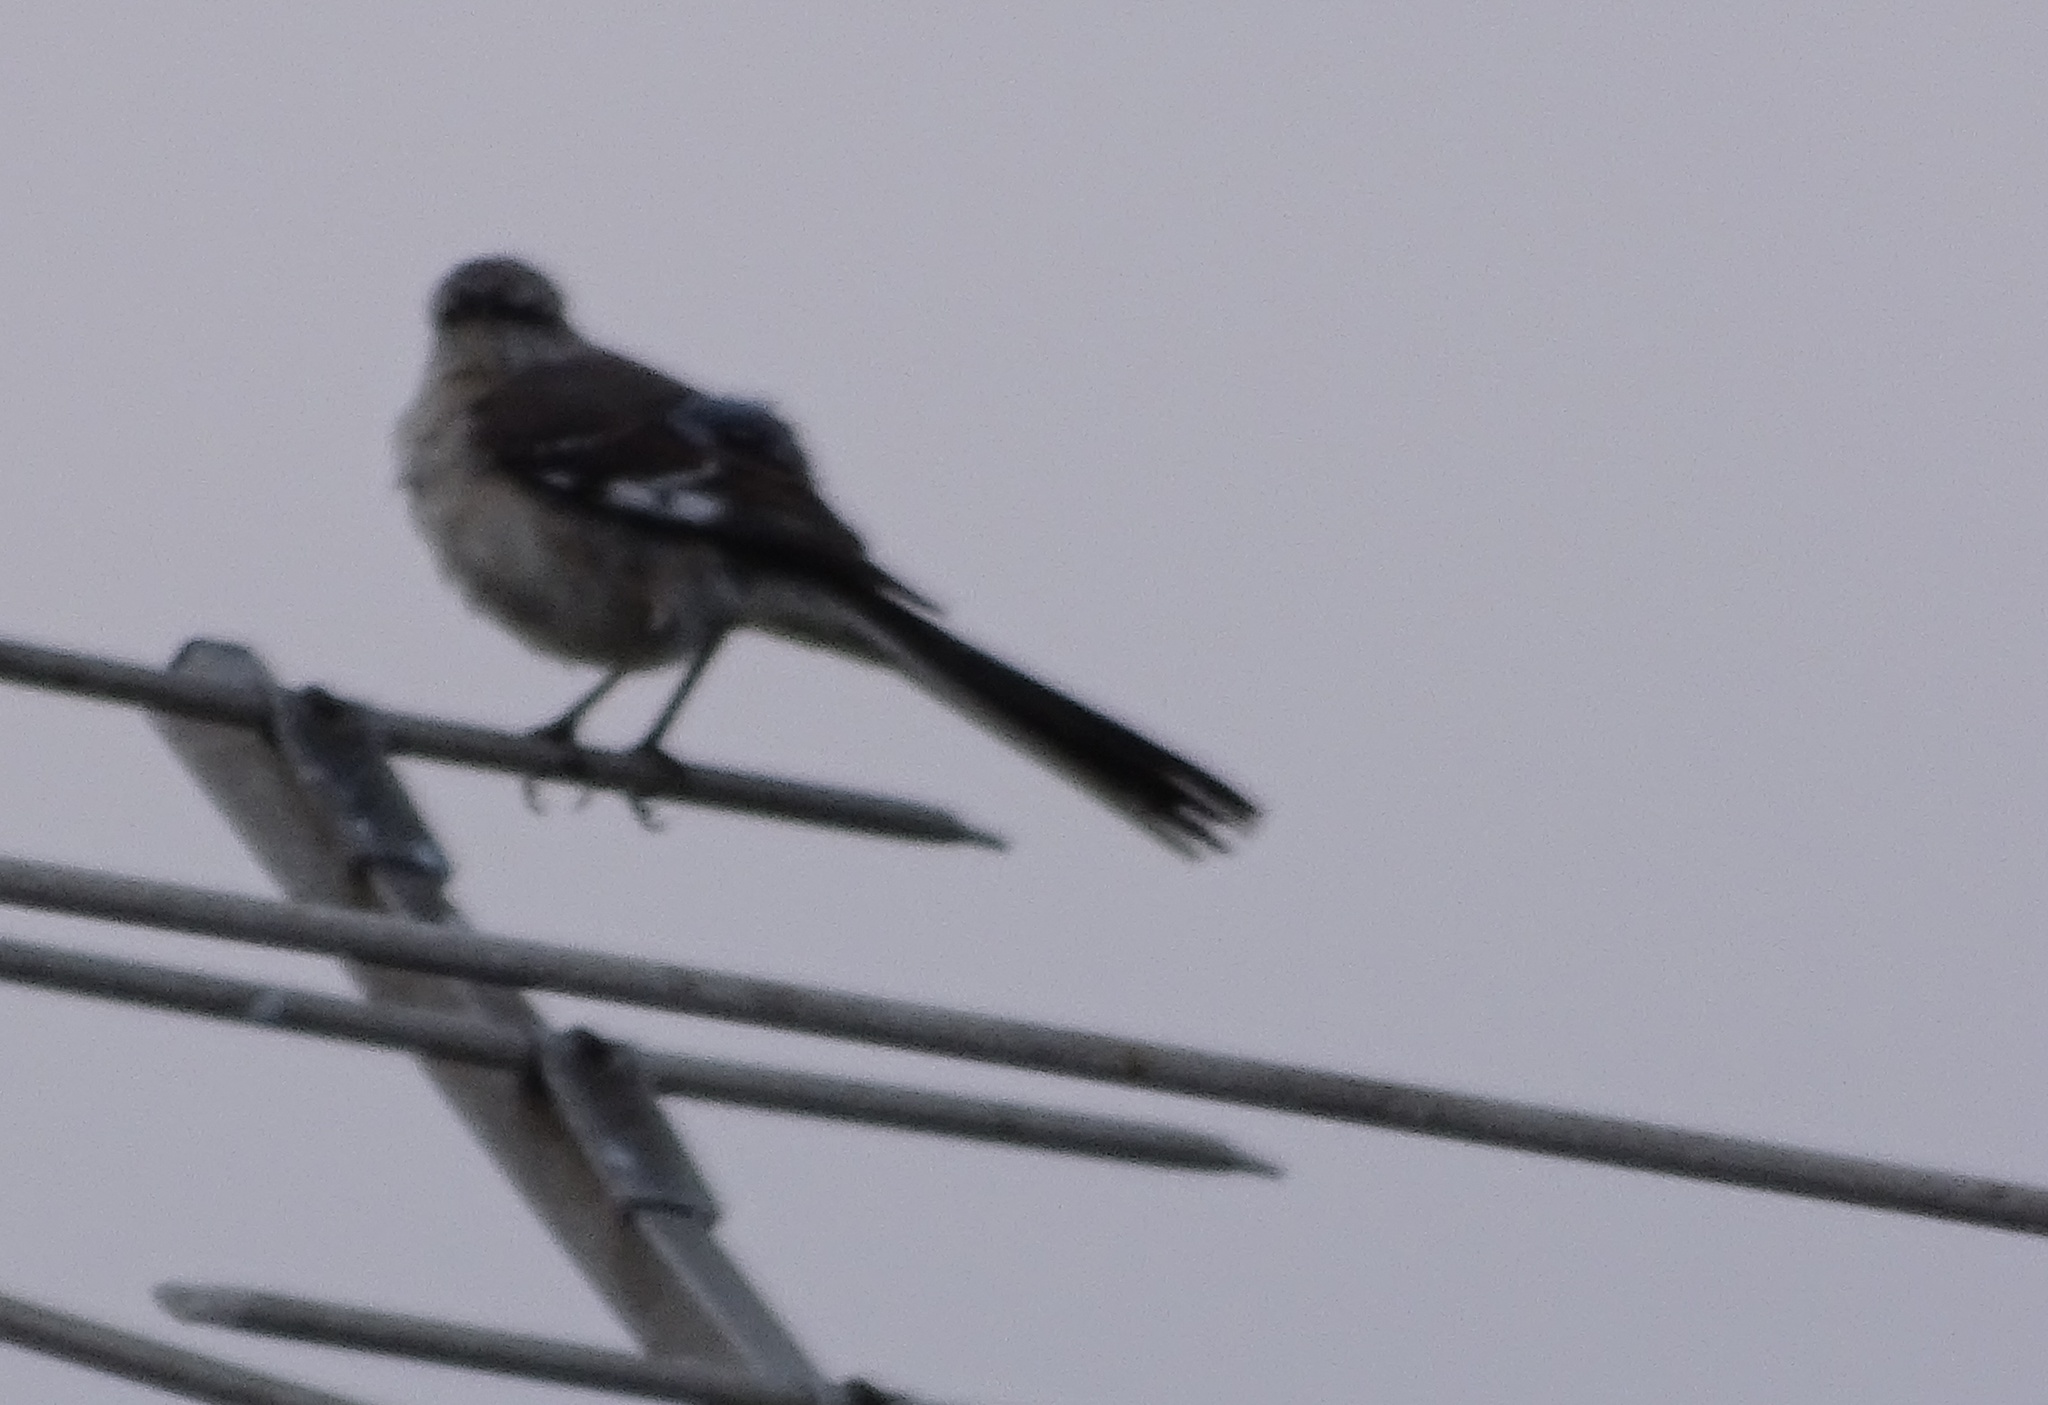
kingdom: Animalia
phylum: Chordata
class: Aves
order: Passeriformes
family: Mimidae
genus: Mimus
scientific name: Mimus polyglottos
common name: Northern mockingbird
